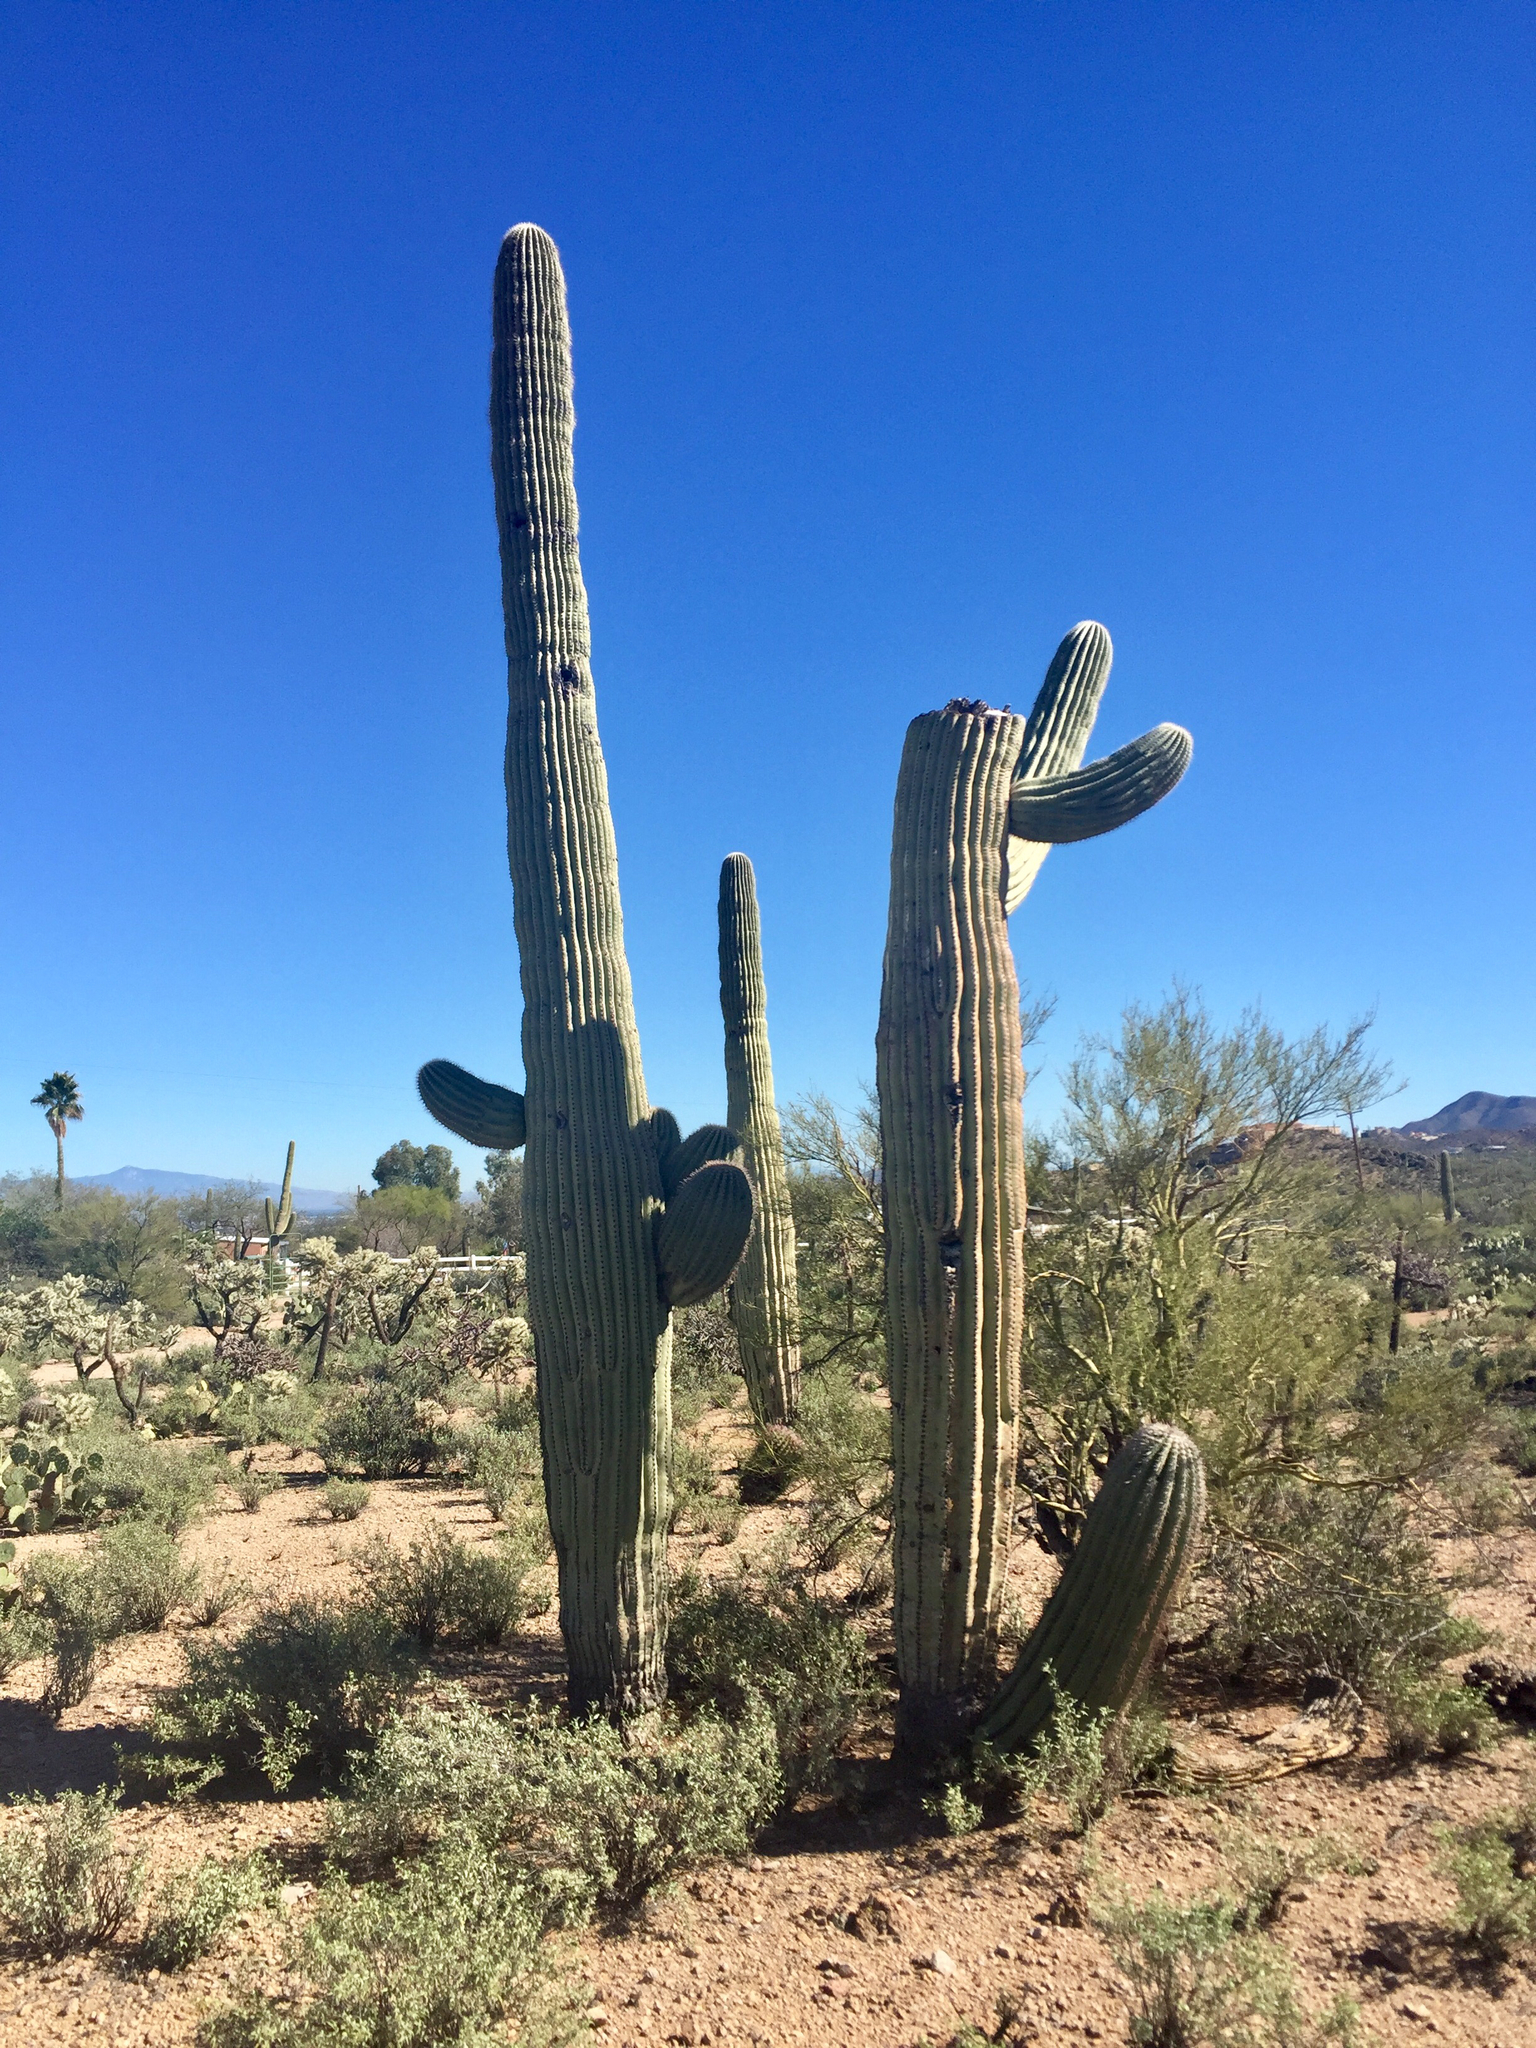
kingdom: Plantae
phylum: Tracheophyta
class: Magnoliopsida
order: Caryophyllales
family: Cactaceae
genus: Carnegiea
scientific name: Carnegiea gigantea
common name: Saguaro
